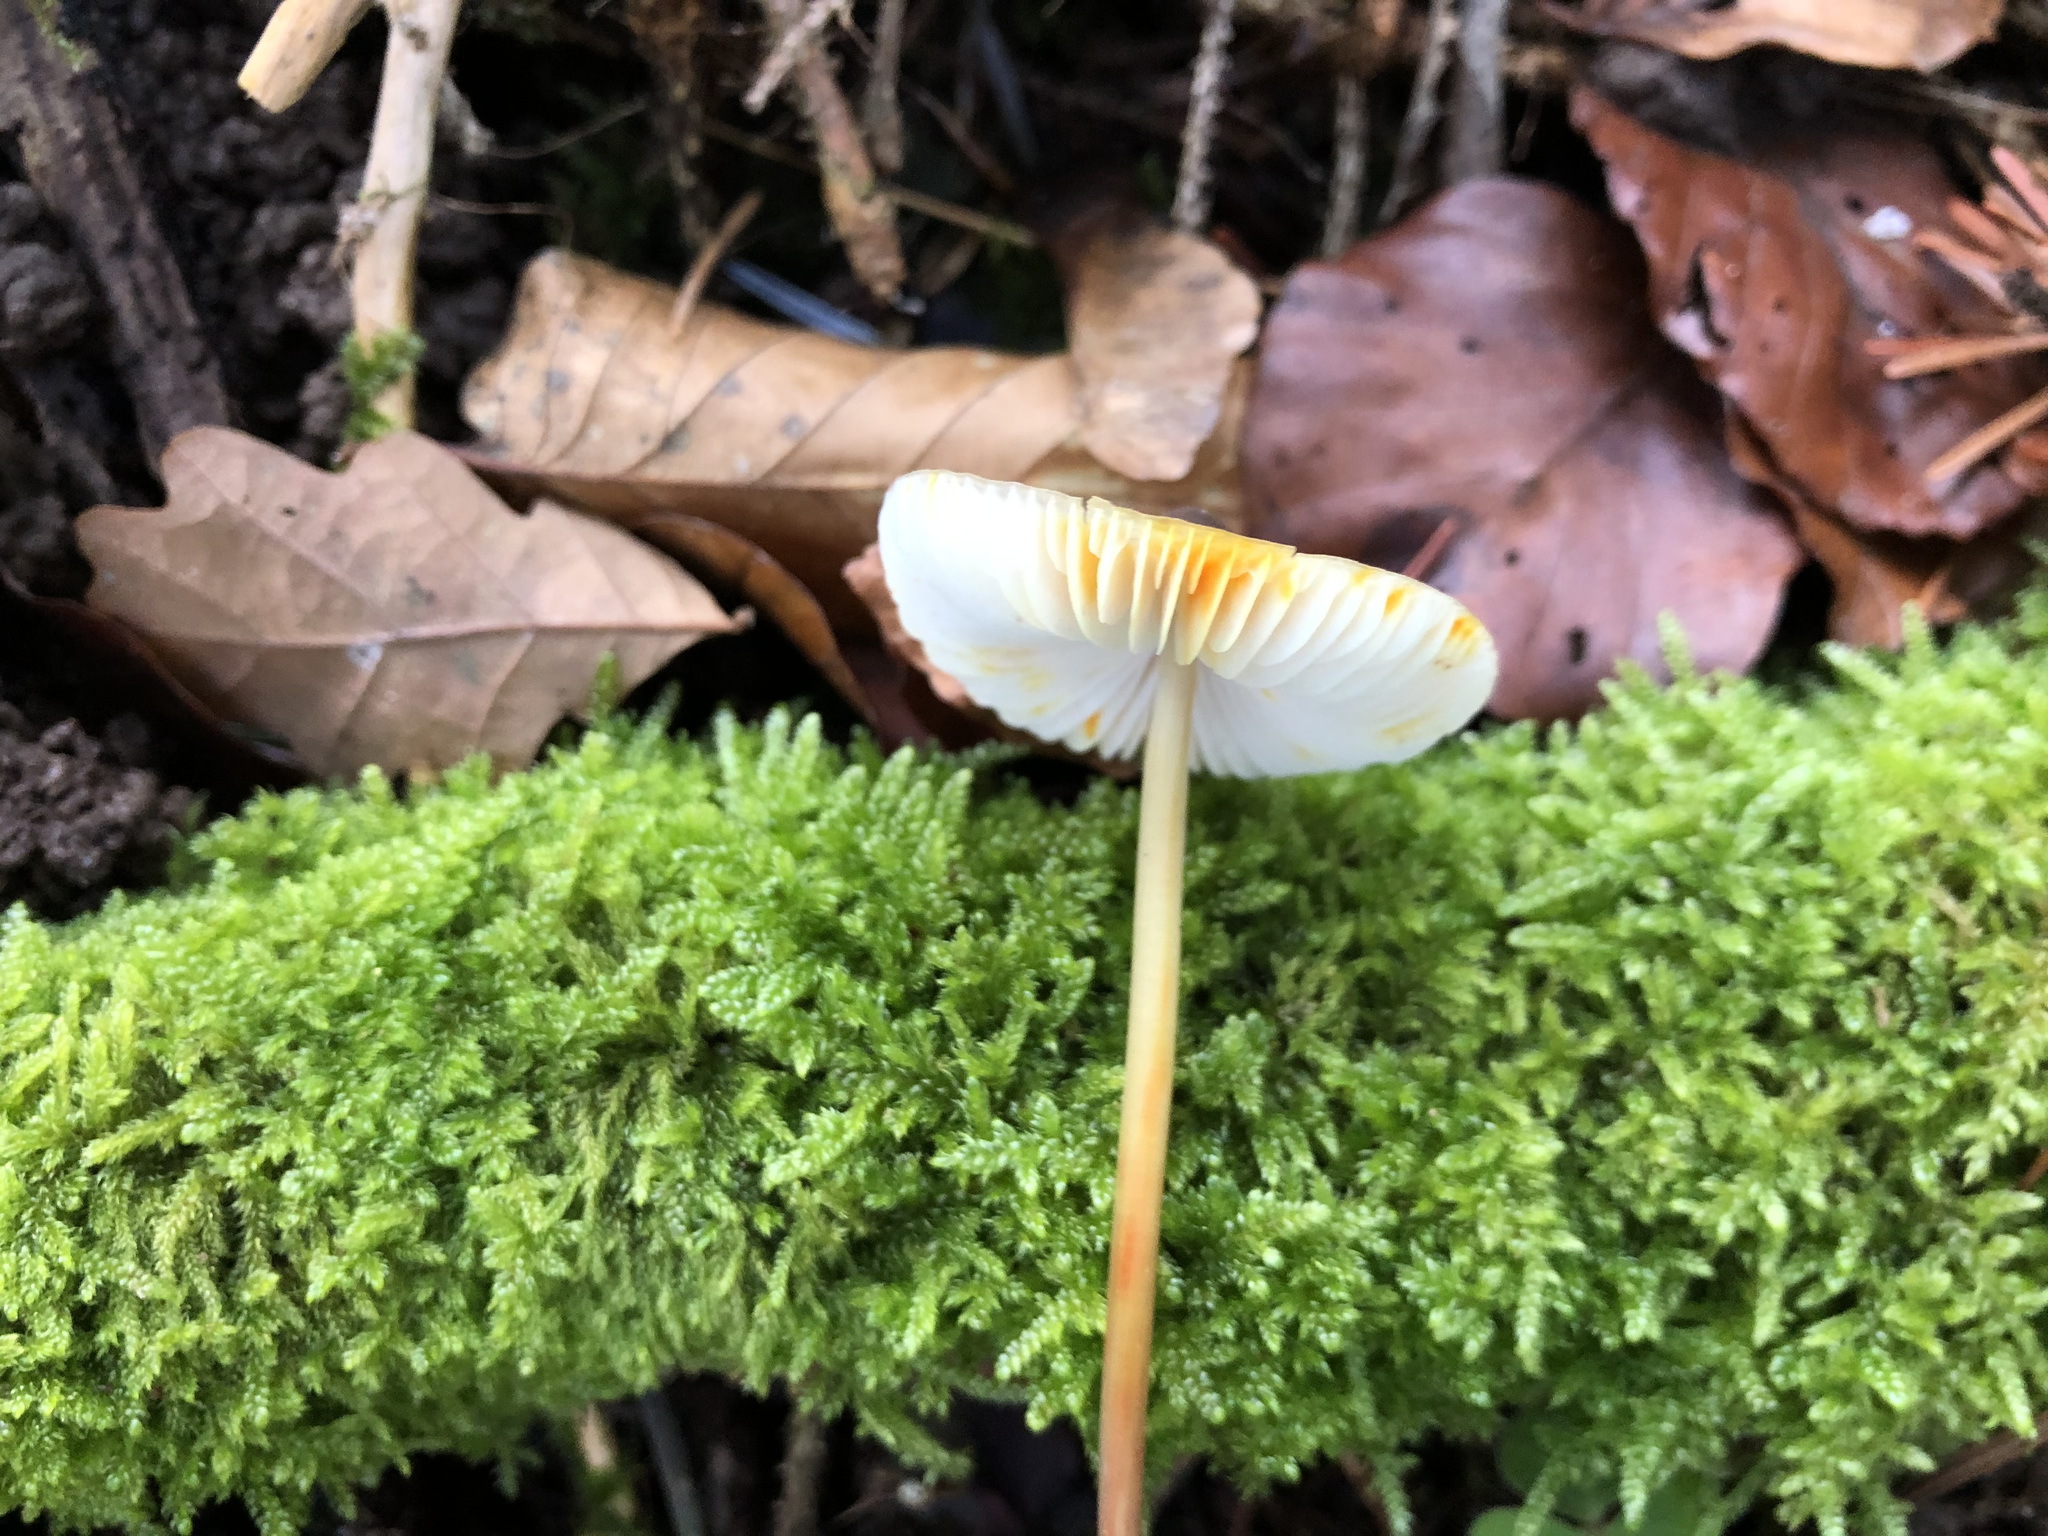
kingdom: Fungi
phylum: Basidiomycota
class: Agaricomycetes
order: Agaricales
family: Mycenaceae
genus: Mycena
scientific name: Mycena crocata
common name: Saffrondrop bonnet
